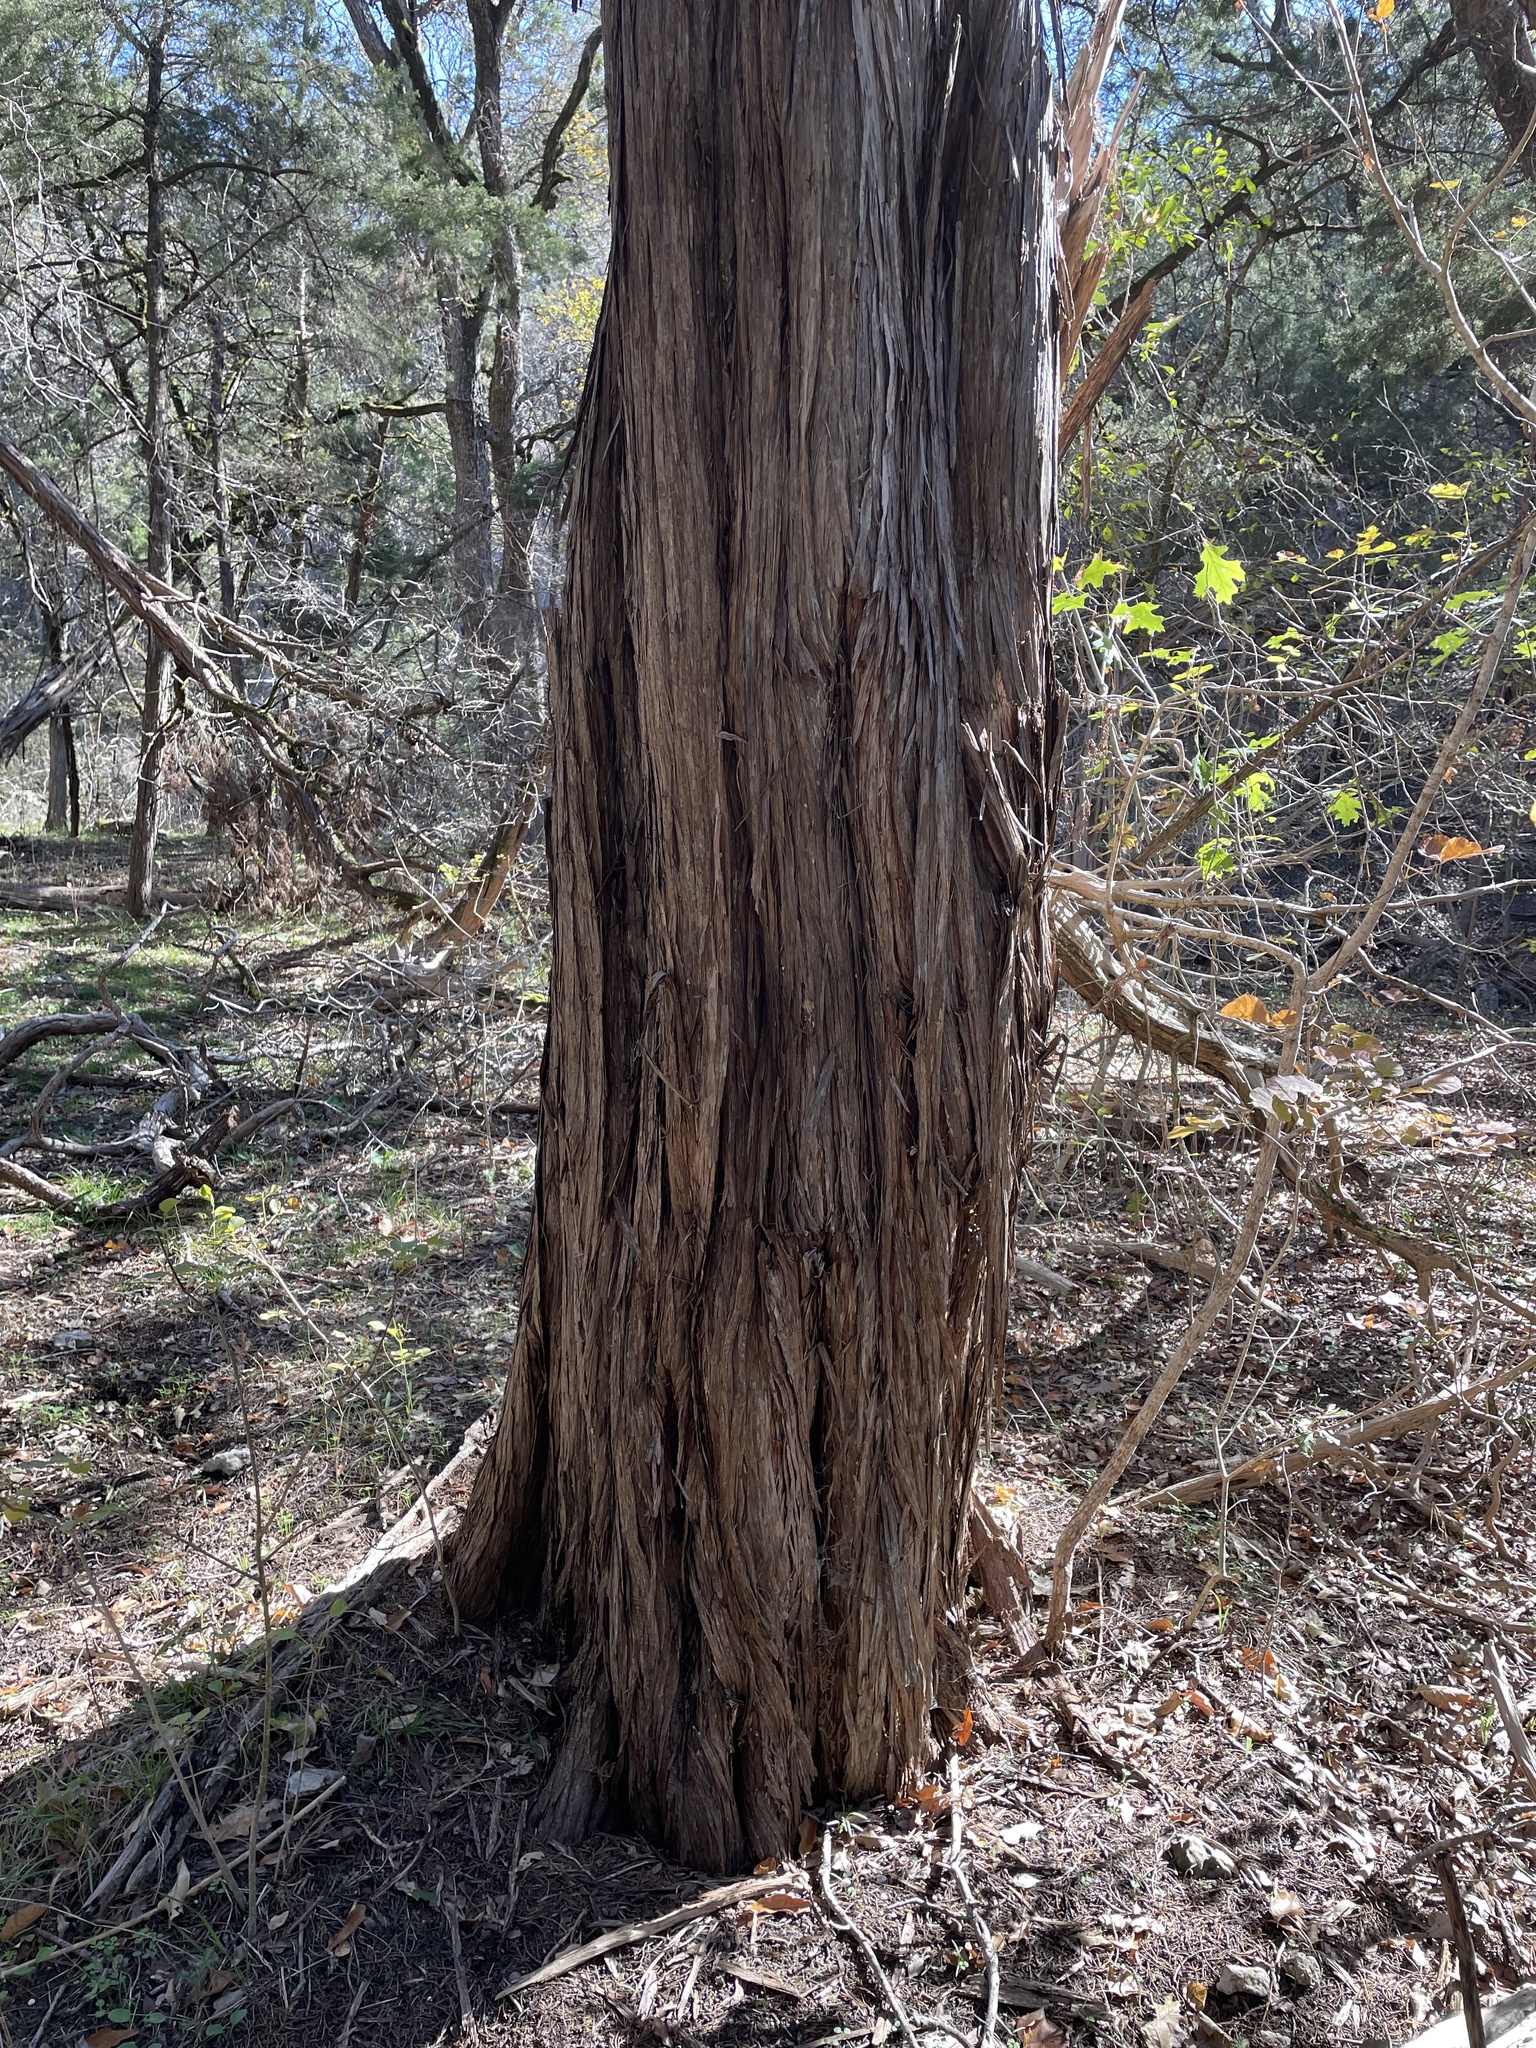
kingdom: Plantae
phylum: Tracheophyta
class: Pinopsida
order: Pinales
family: Cupressaceae
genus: Juniperus
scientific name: Juniperus ashei
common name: Mexican juniper
